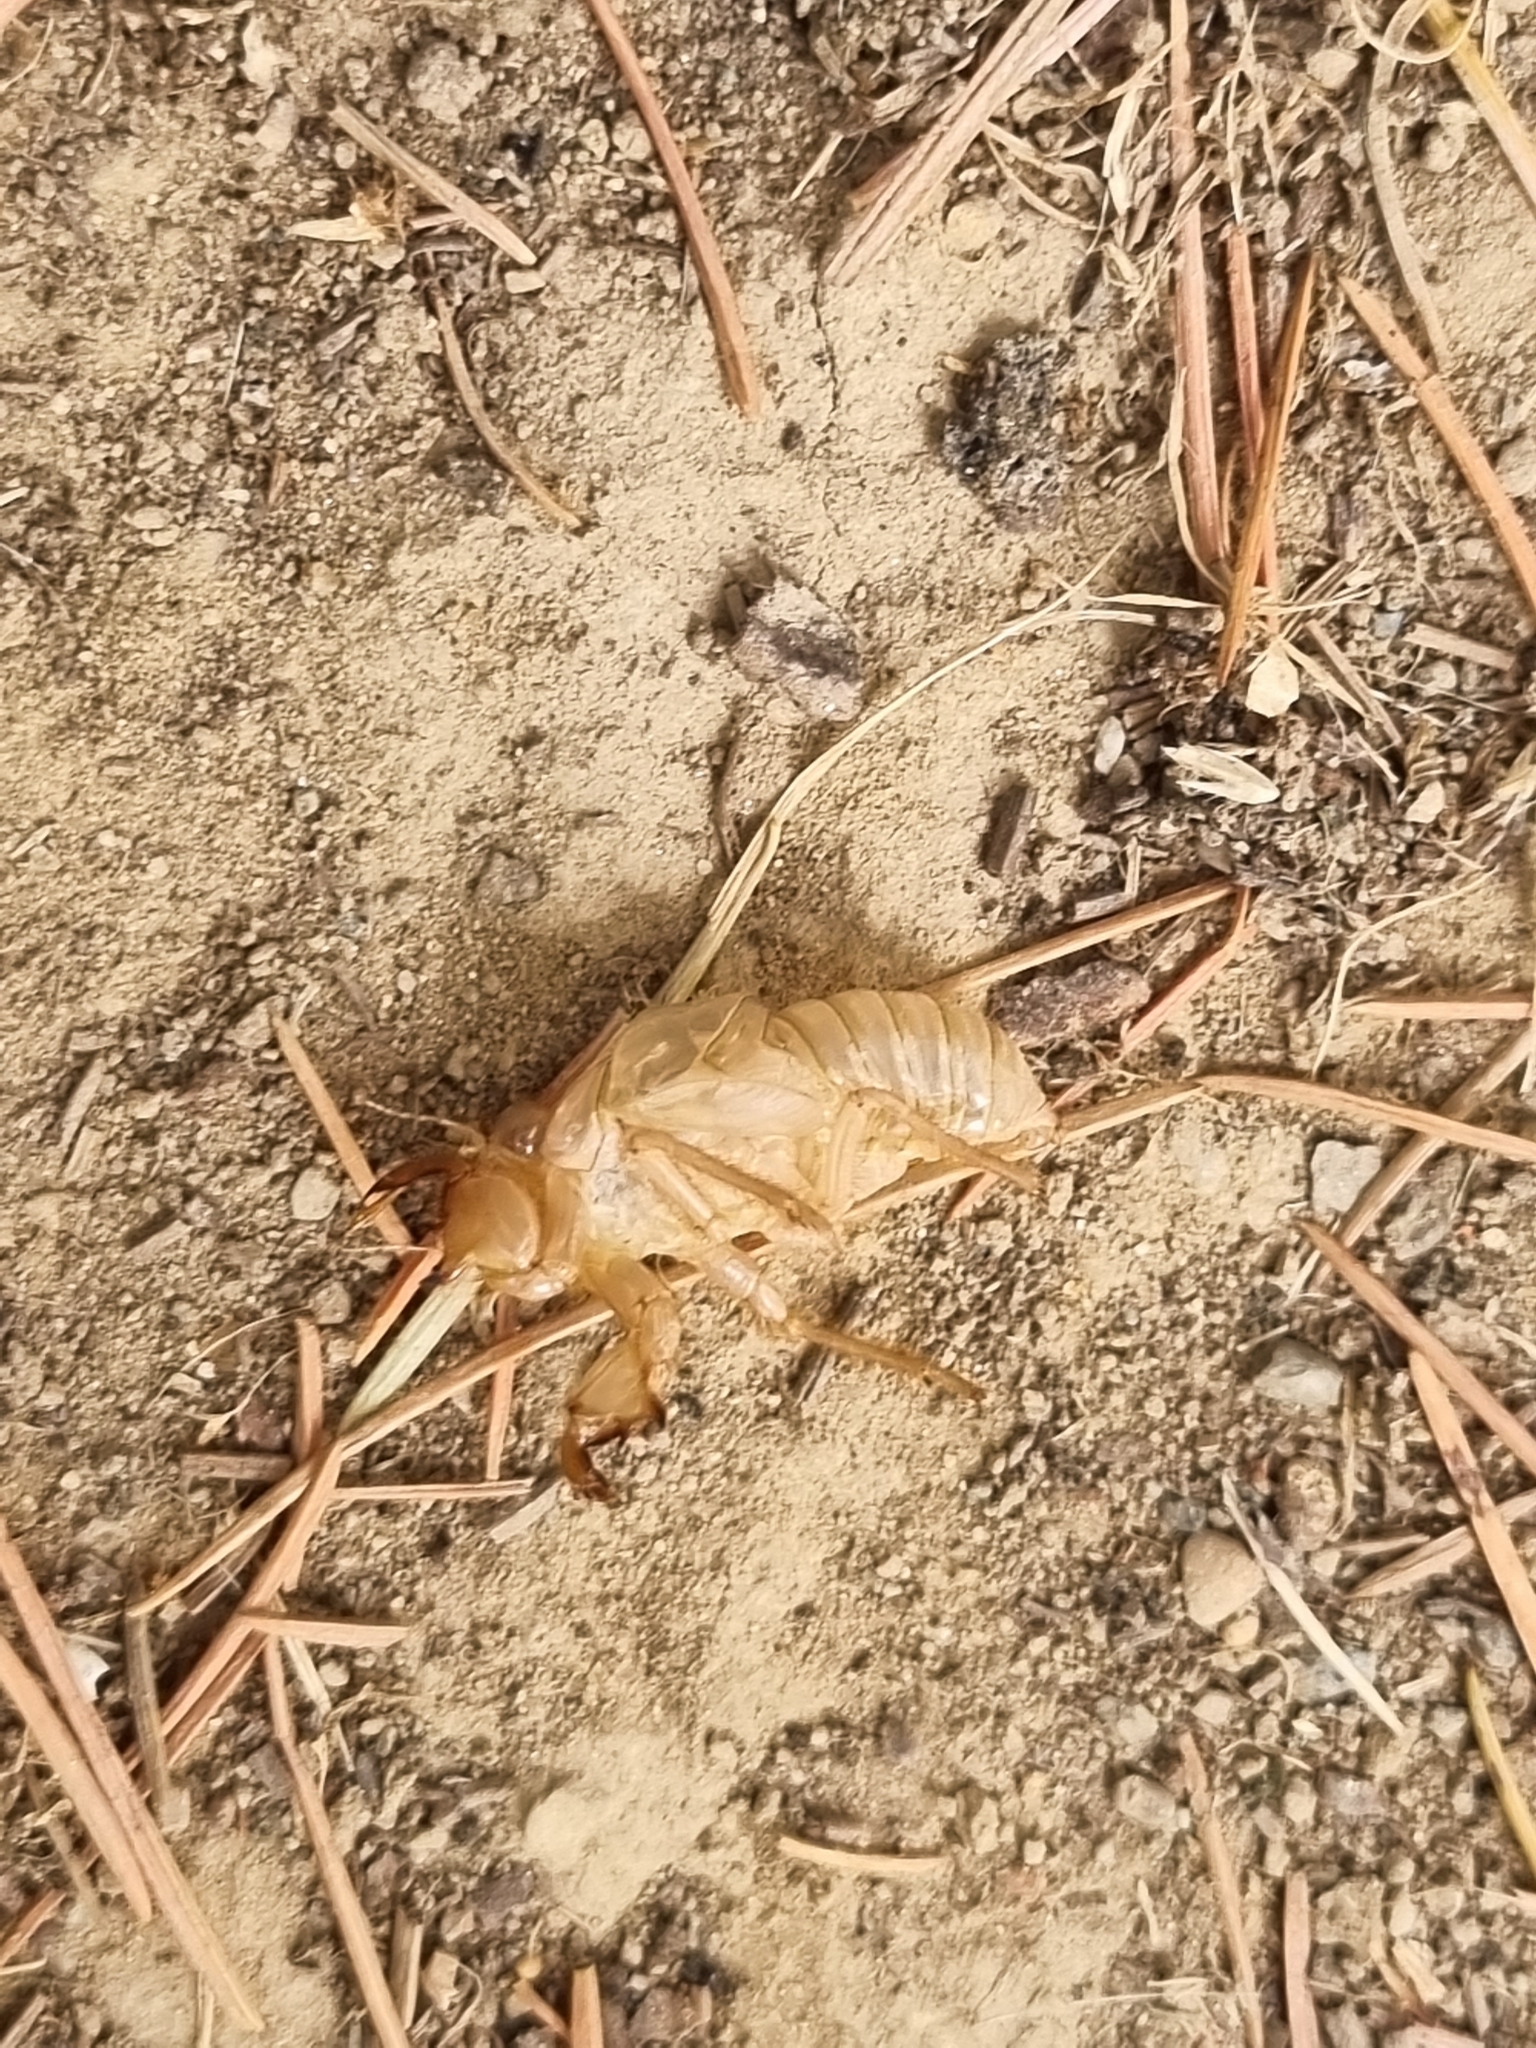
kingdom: Animalia
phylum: Arthropoda
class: Insecta
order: Hemiptera
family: Cicadidae
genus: Cicada
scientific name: Cicada orni
